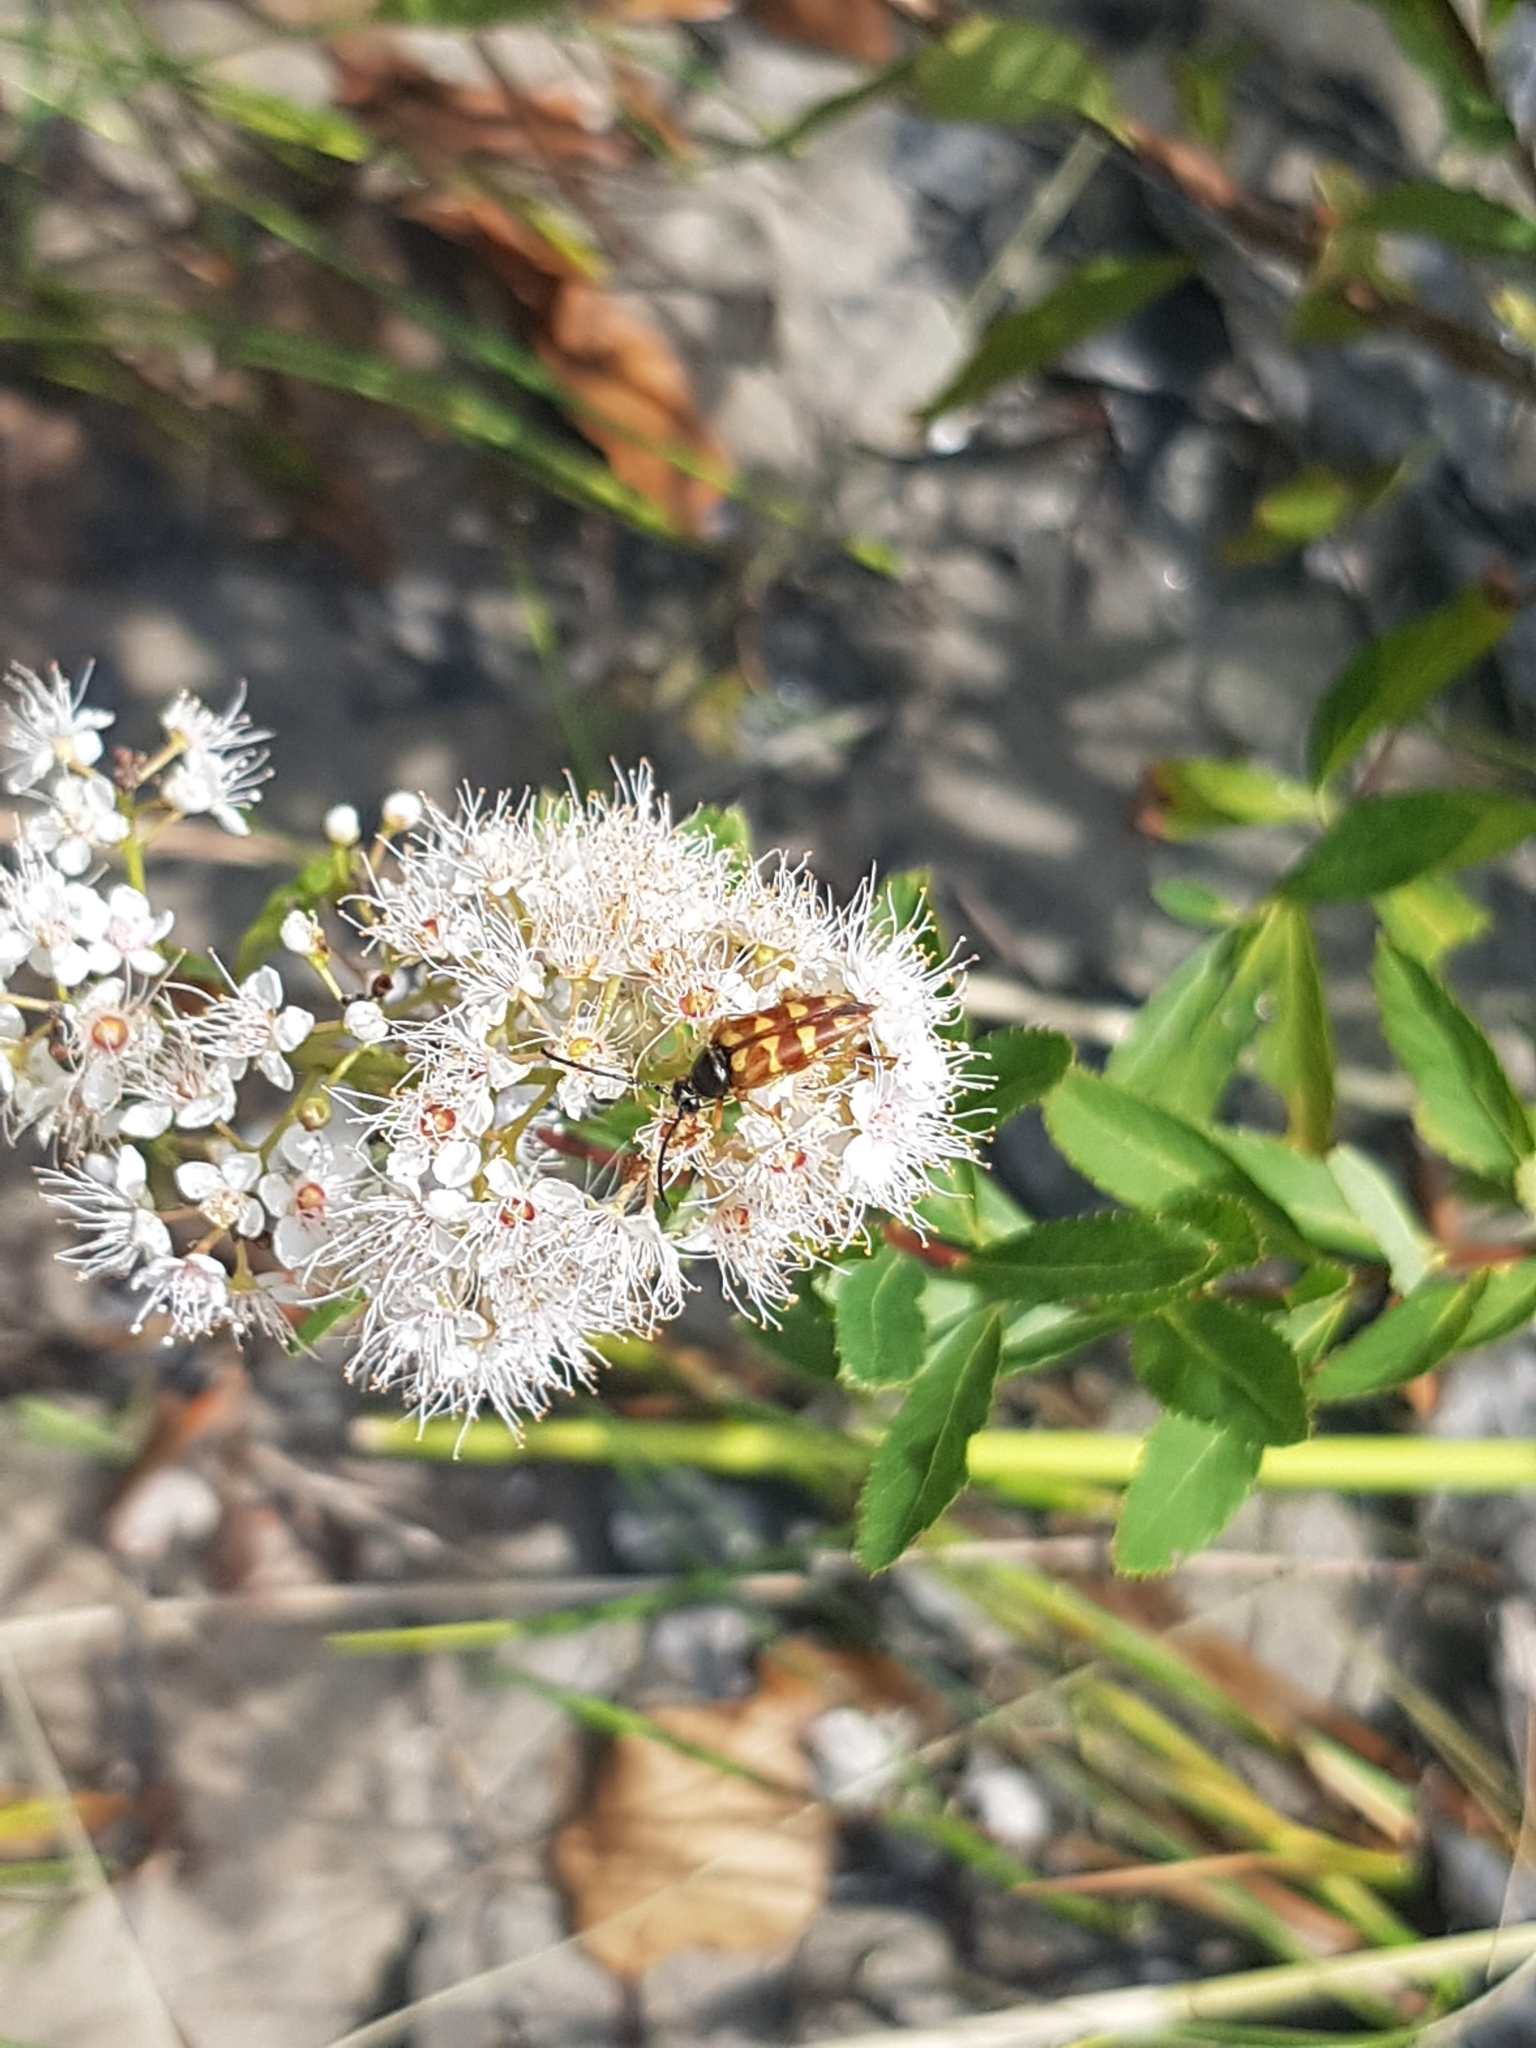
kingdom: Plantae
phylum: Tracheophyta
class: Magnoliopsida
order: Rosales
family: Rosaceae
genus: Spiraea
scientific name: Spiraea alba
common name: Pale bridewort
